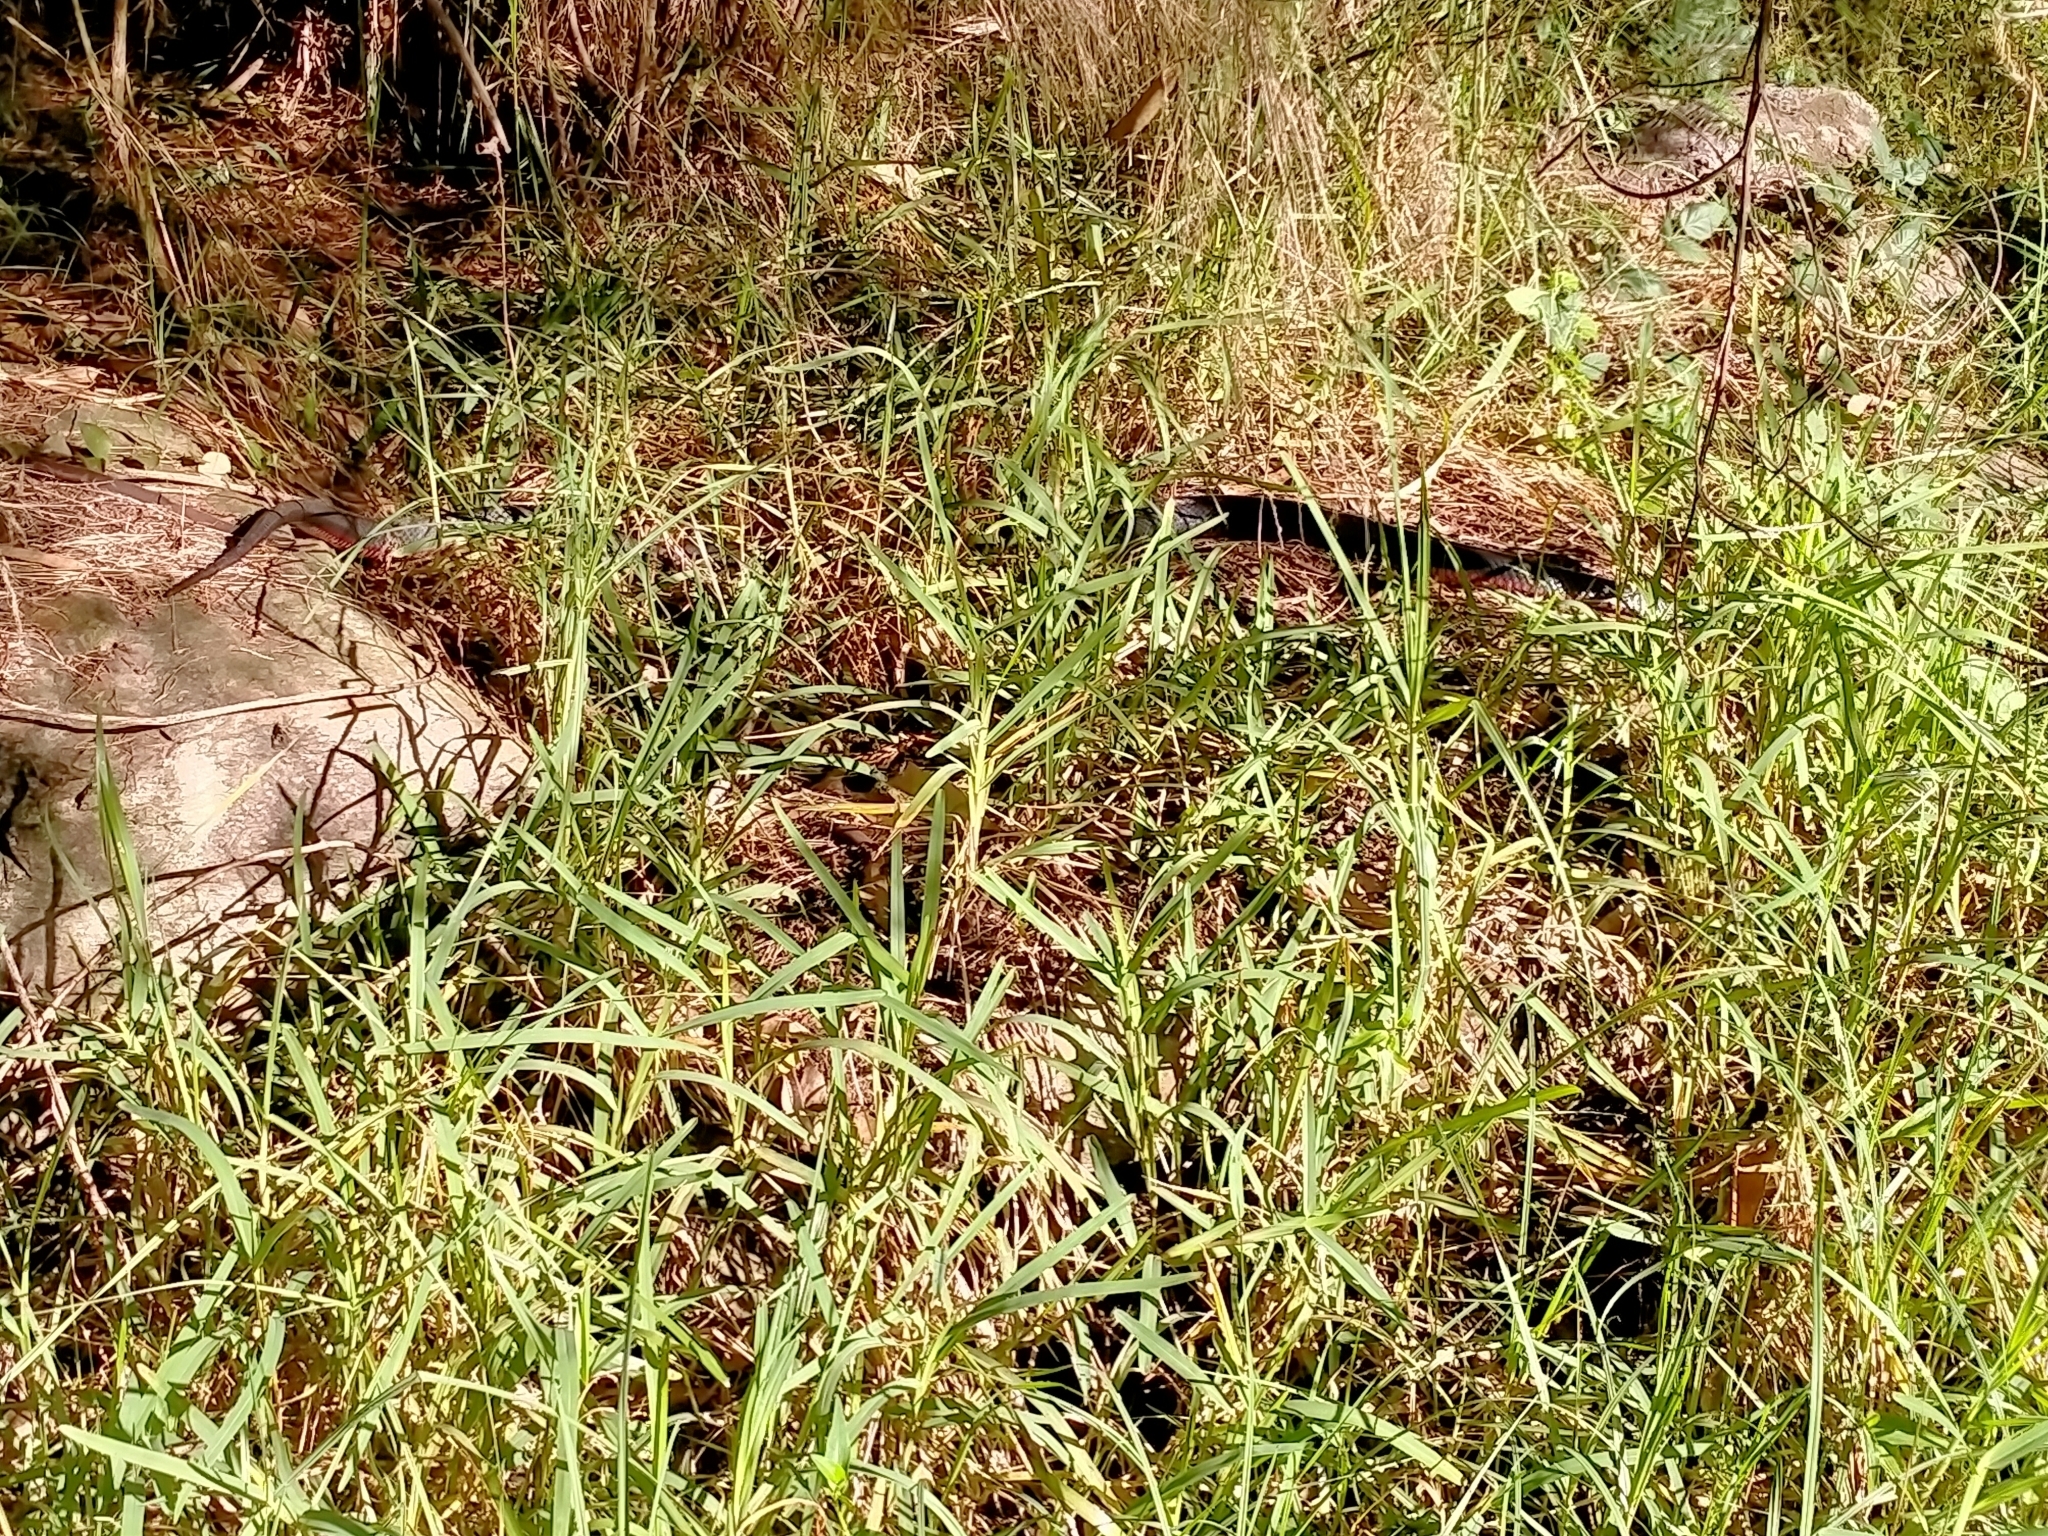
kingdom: Animalia
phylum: Chordata
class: Squamata
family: Elapidae
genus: Pseudechis
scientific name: Pseudechis porphyriacus
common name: Australian black snake
